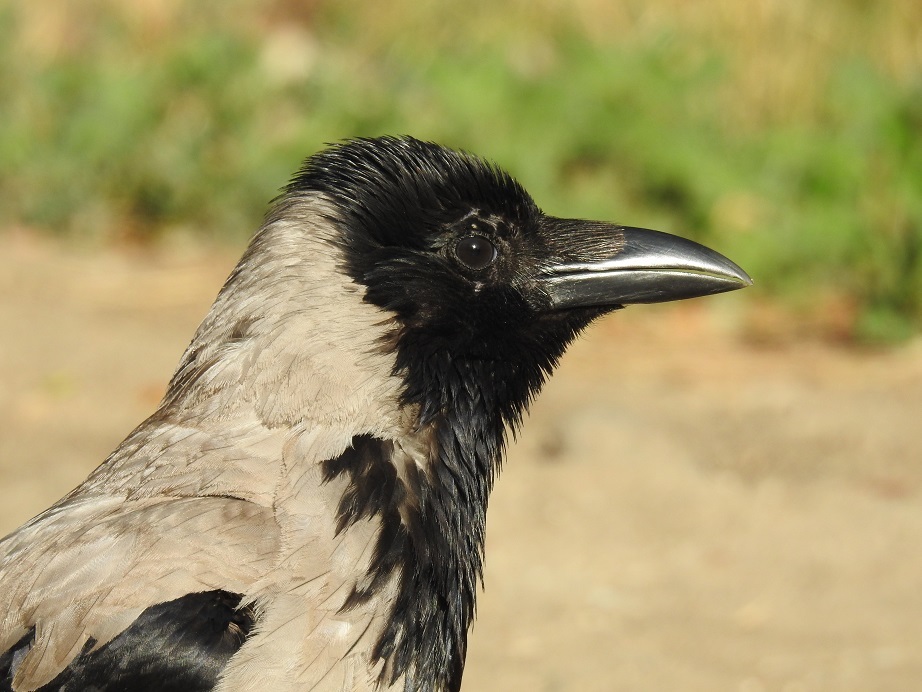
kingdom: Animalia
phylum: Chordata
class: Aves
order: Passeriformes
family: Corvidae
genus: Corvus
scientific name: Corvus cornix
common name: Hooded crow
